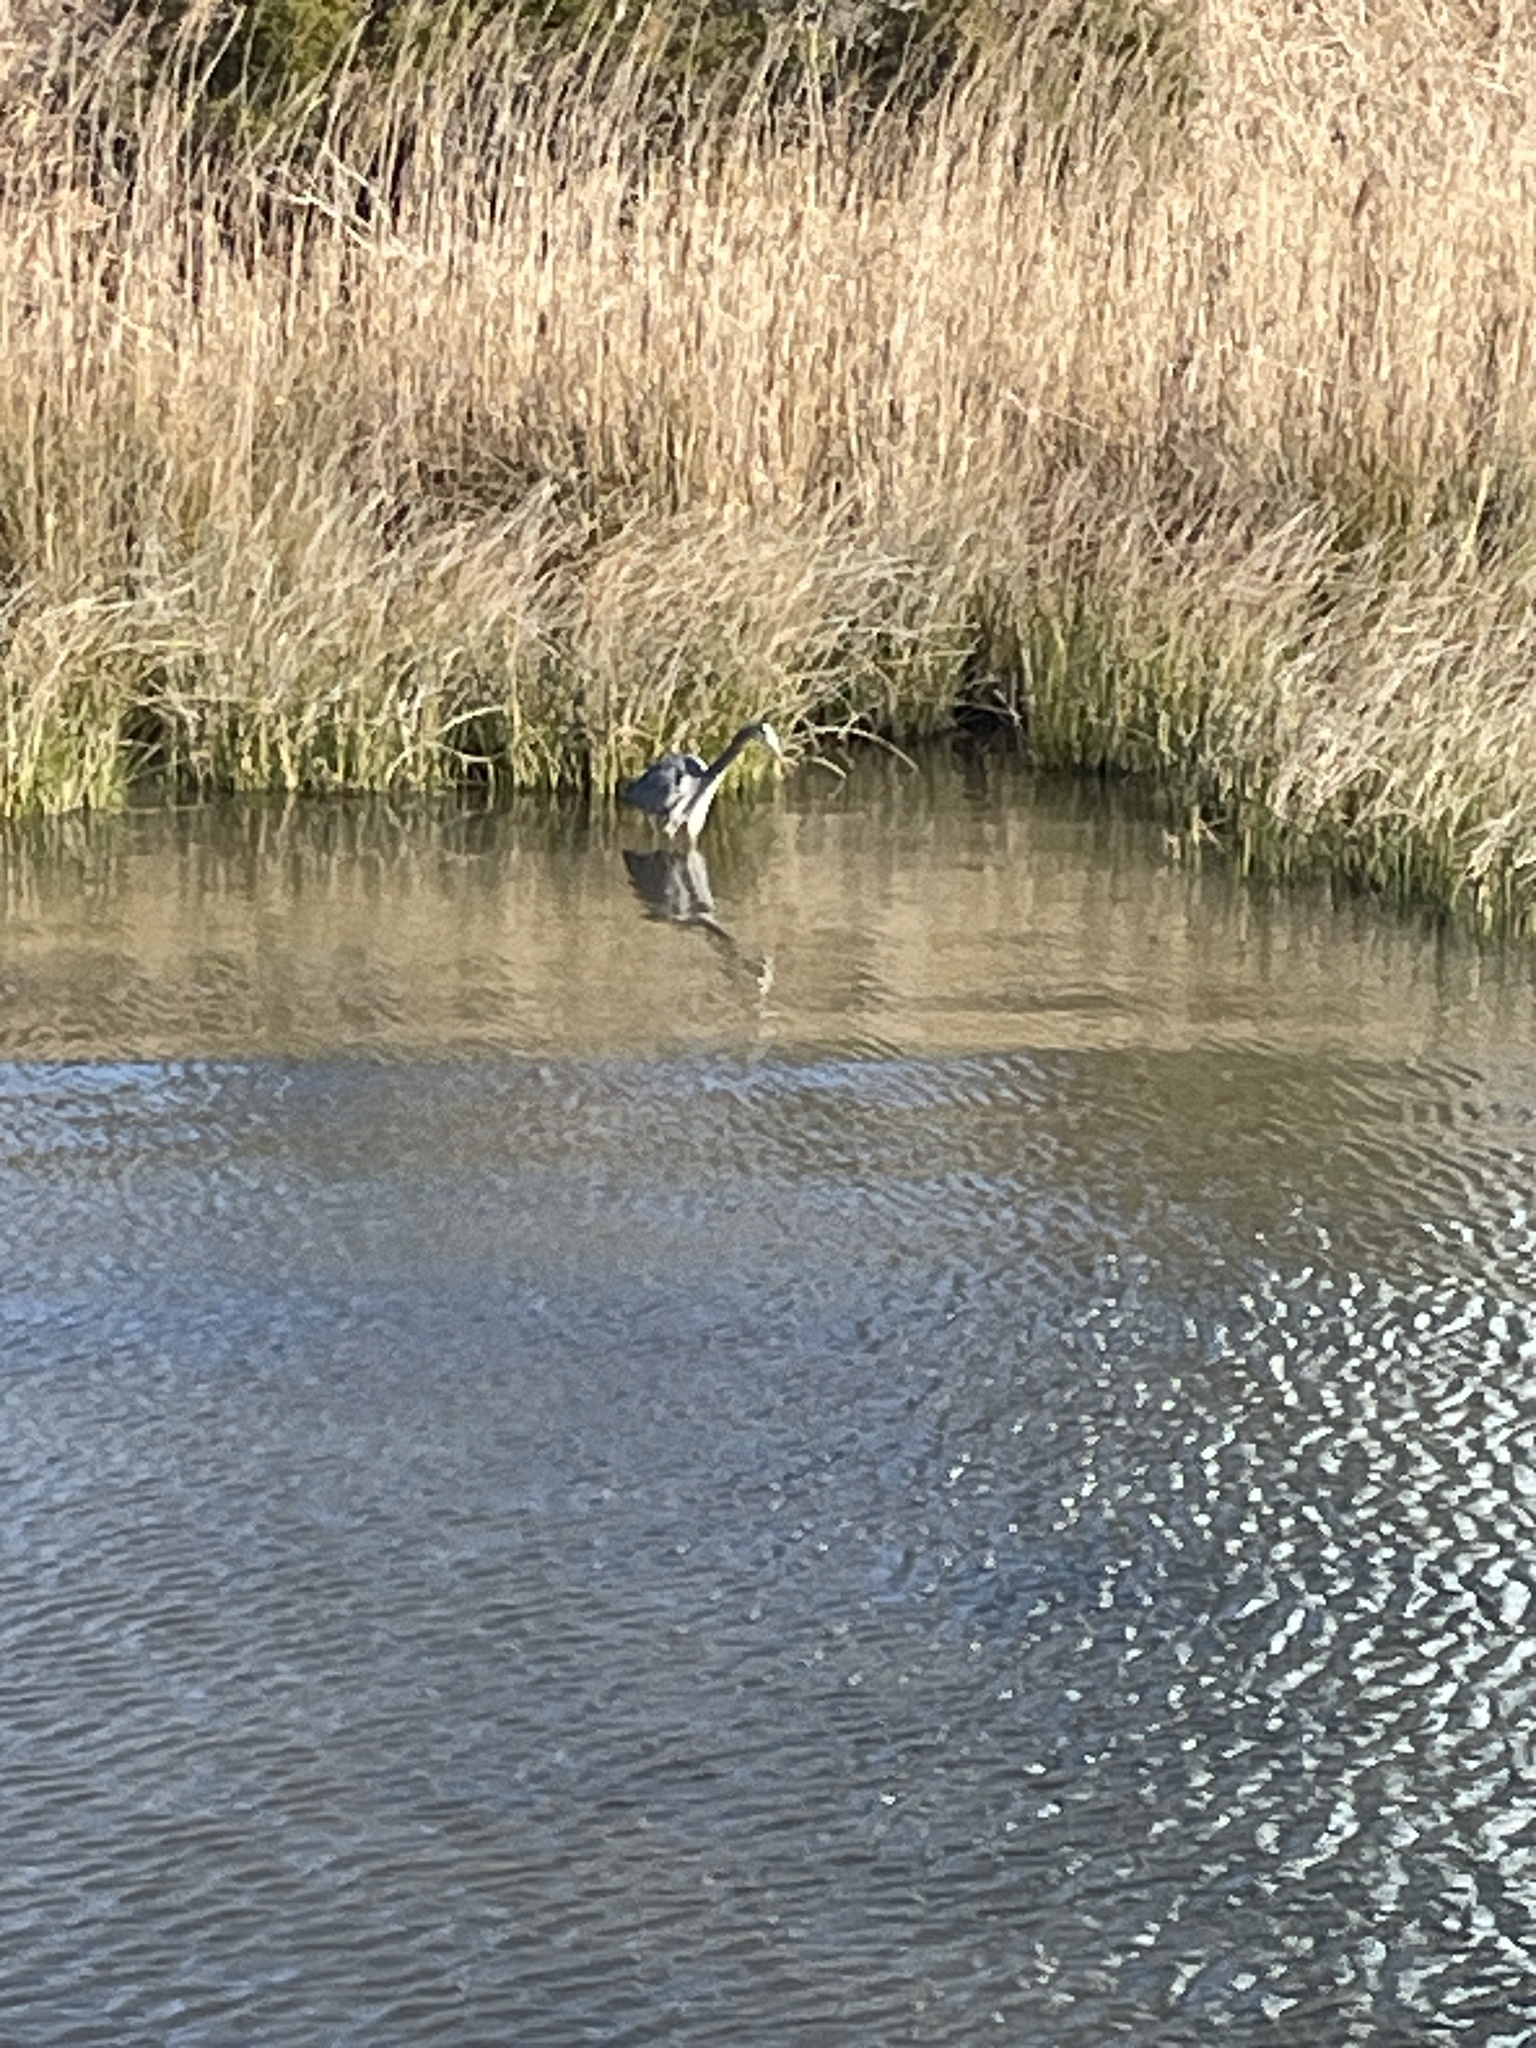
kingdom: Animalia
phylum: Chordata
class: Aves
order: Pelecaniformes
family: Ardeidae
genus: Ardea
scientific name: Ardea herodias
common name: Great blue heron
